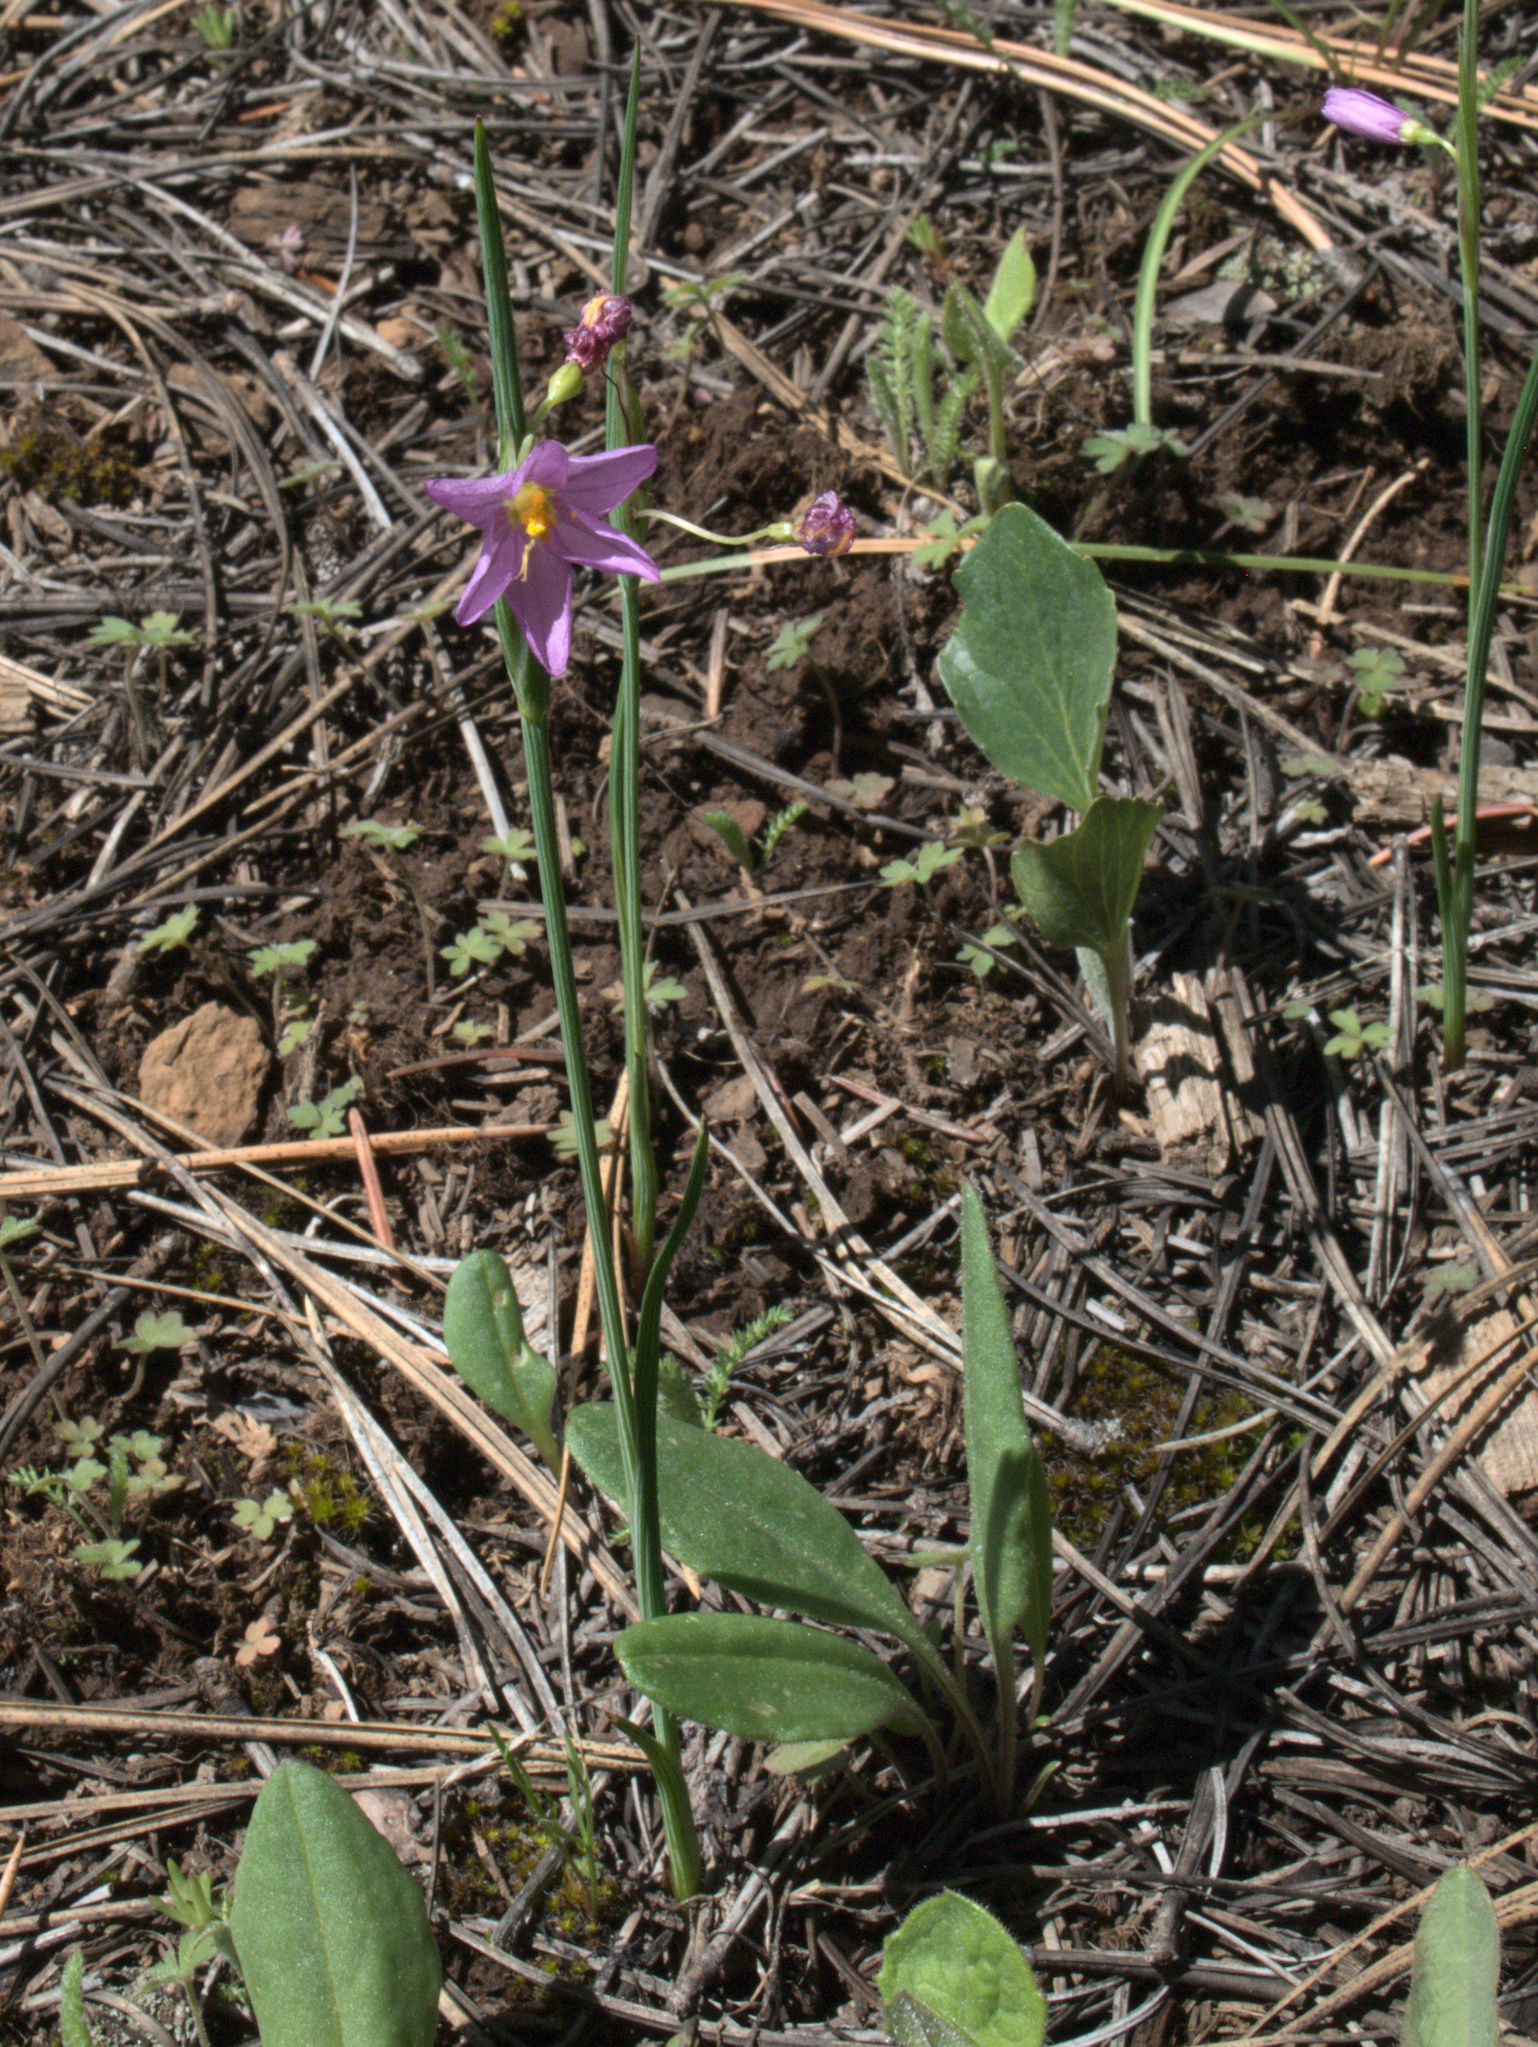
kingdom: Plantae
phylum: Tracheophyta
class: Liliopsida
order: Asparagales
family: Iridaceae
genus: Olsynium
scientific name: Olsynium douglasii
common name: Douglas' grasswidow
